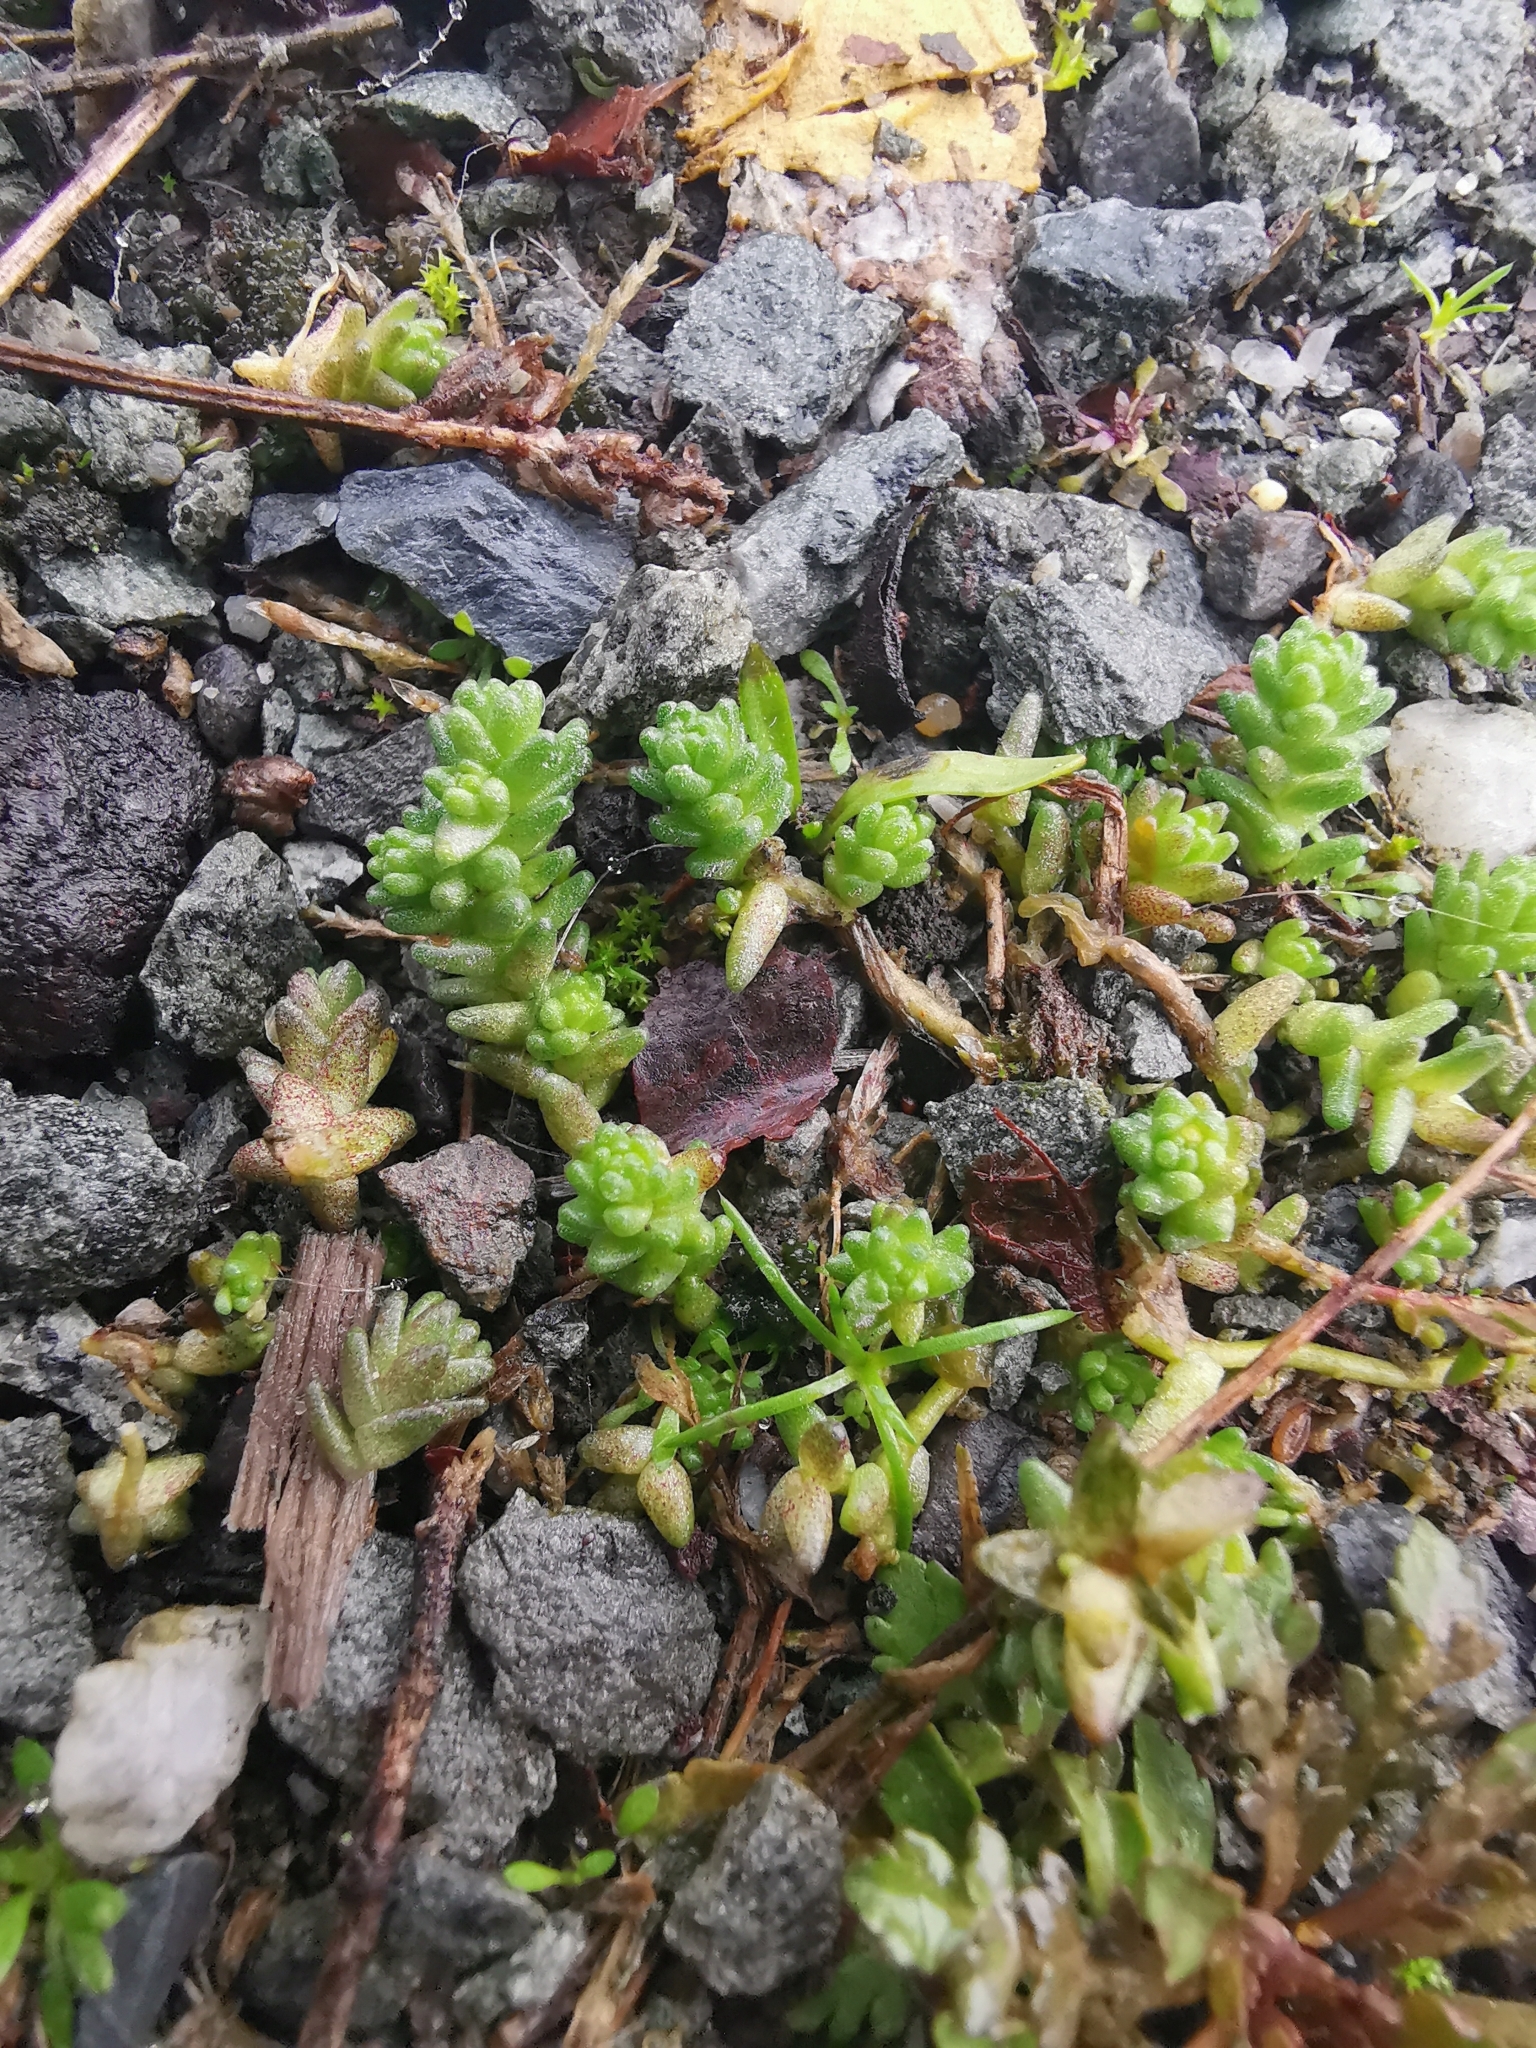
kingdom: Plantae
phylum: Tracheophyta
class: Magnoliopsida
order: Saxifragales
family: Crassulaceae
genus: Sedum
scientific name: Sedum acre
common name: Biting stonecrop
